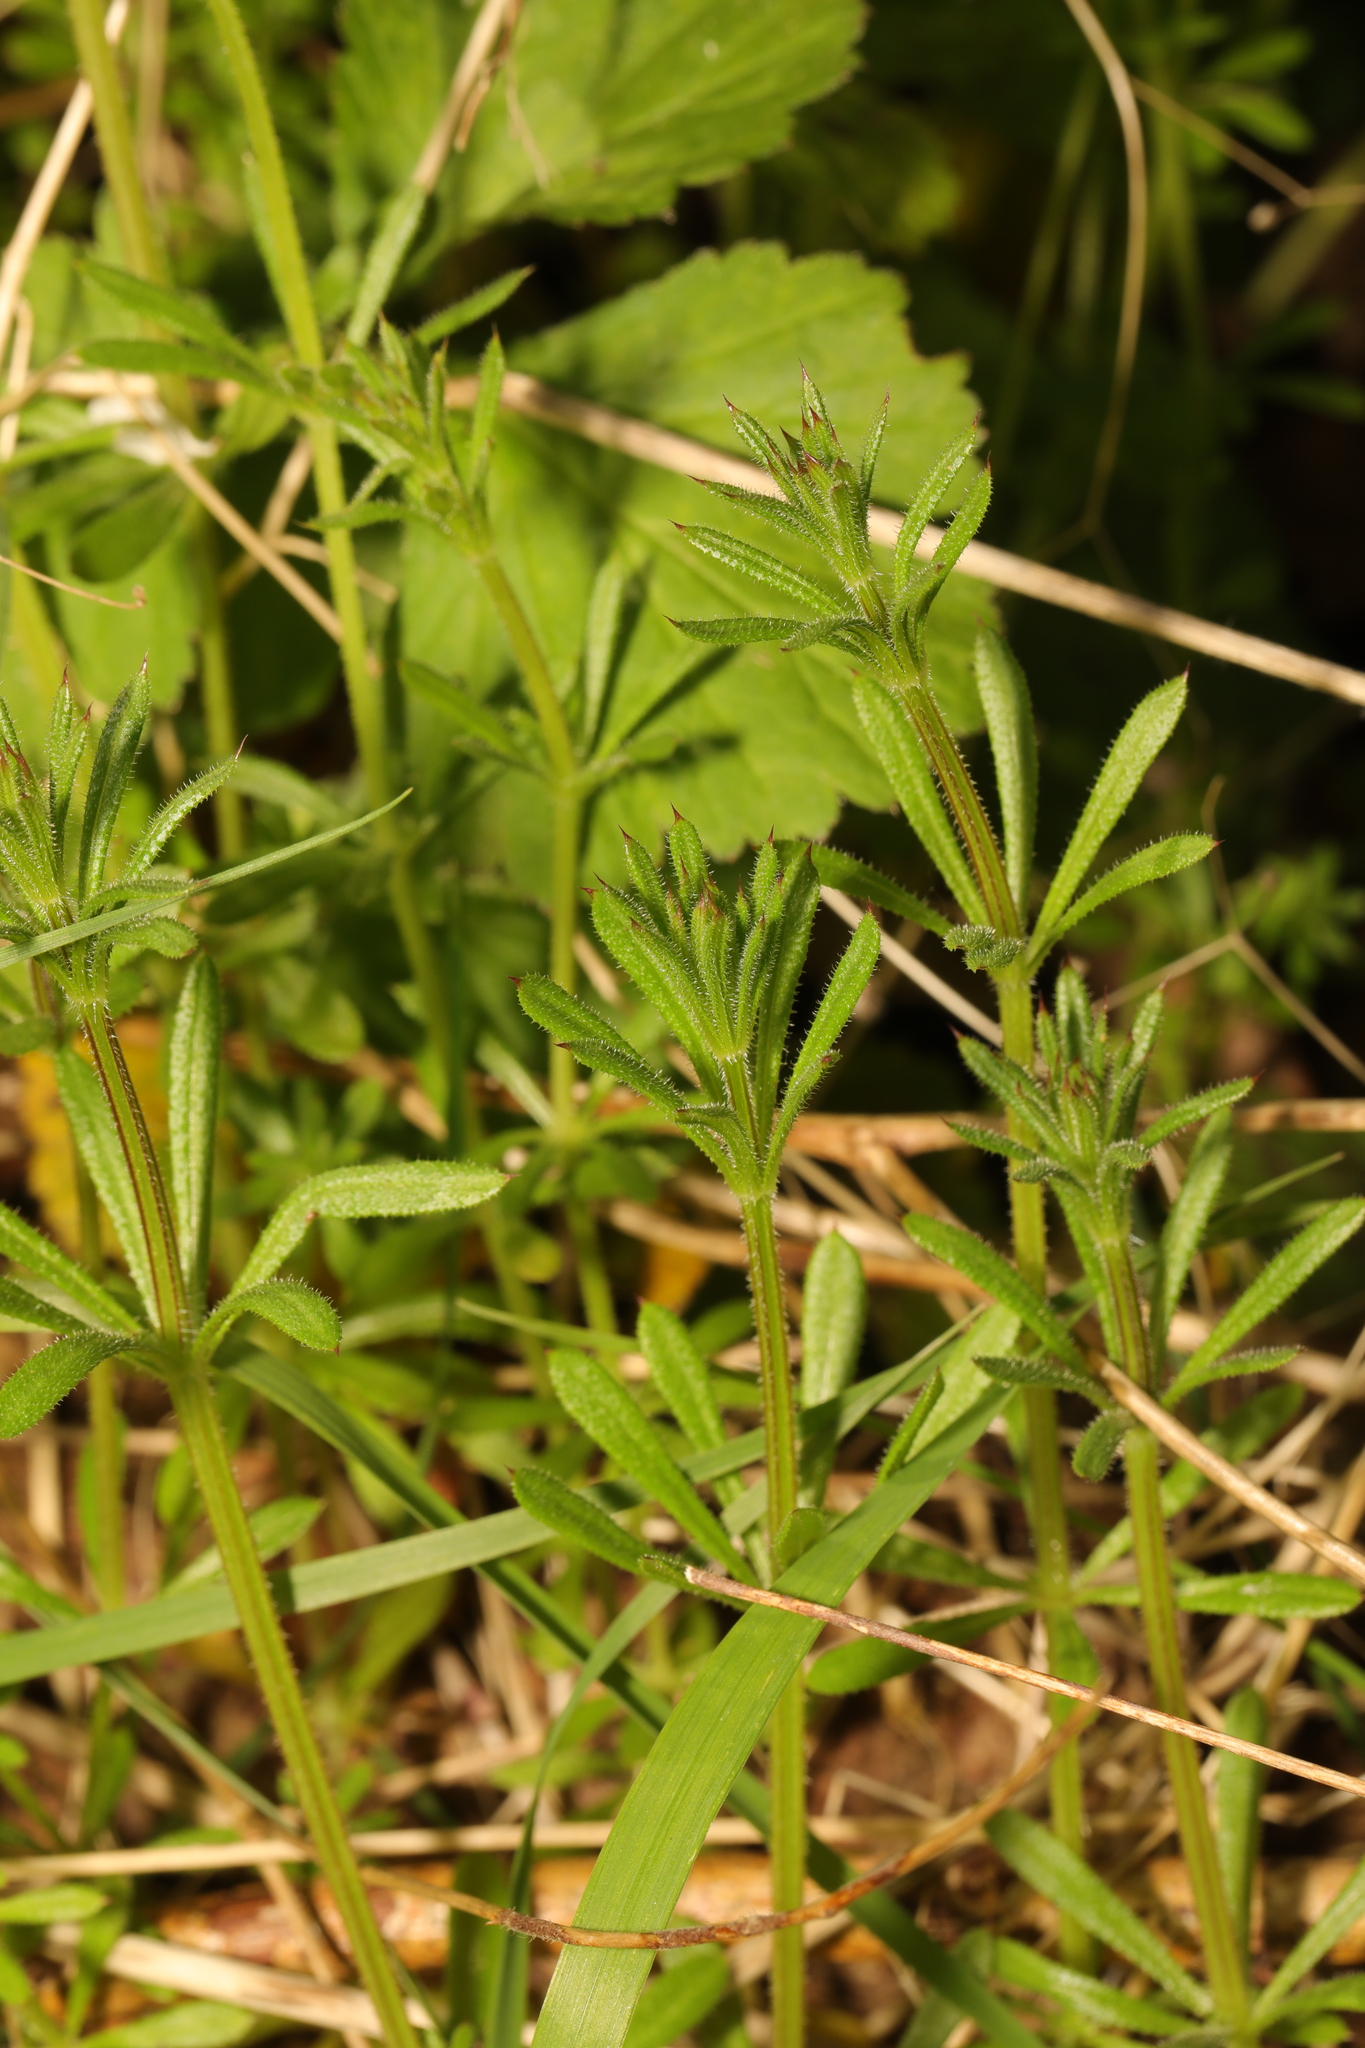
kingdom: Plantae
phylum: Tracheophyta
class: Magnoliopsida
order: Gentianales
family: Rubiaceae
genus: Galium
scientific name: Galium aparine
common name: Cleavers
